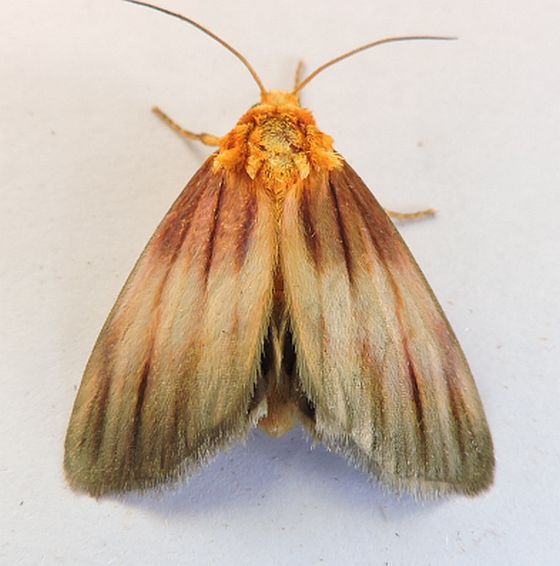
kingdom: Animalia
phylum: Arthropoda
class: Insecta
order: Lepidoptera
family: Noctuidae
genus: Antaplaga
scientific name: Antaplaga plesioglauca
